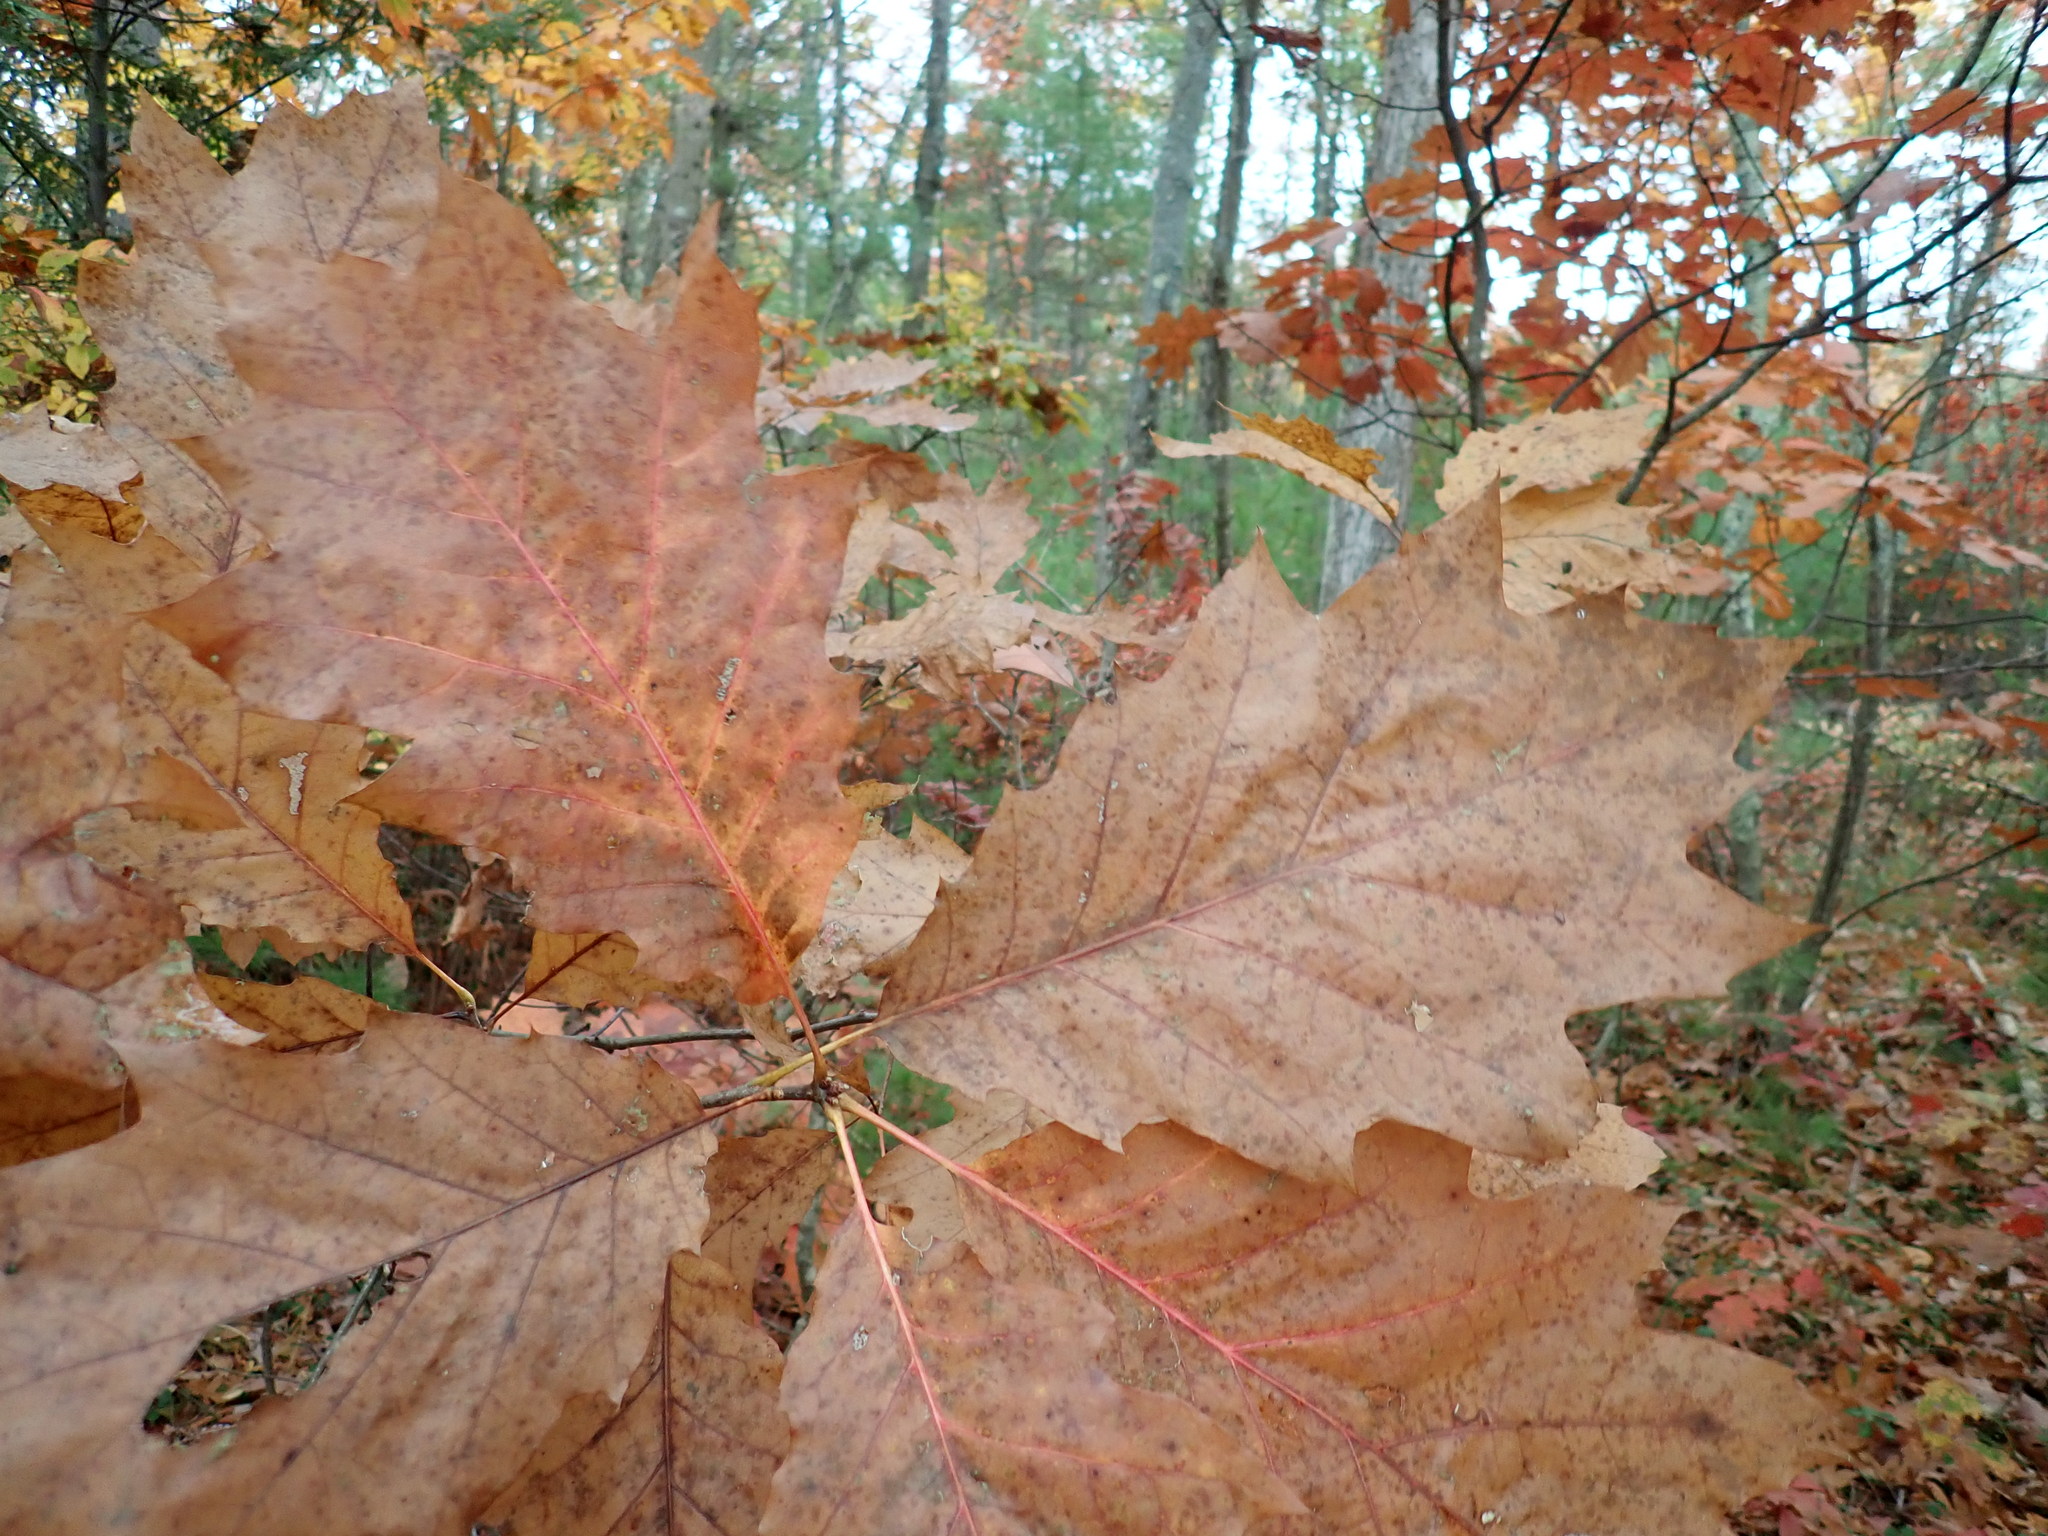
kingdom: Plantae
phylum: Tracheophyta
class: Magnoliopsida
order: Fagales
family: Fagaceae
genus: Quercus
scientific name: Quercus rubra
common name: Red oak
